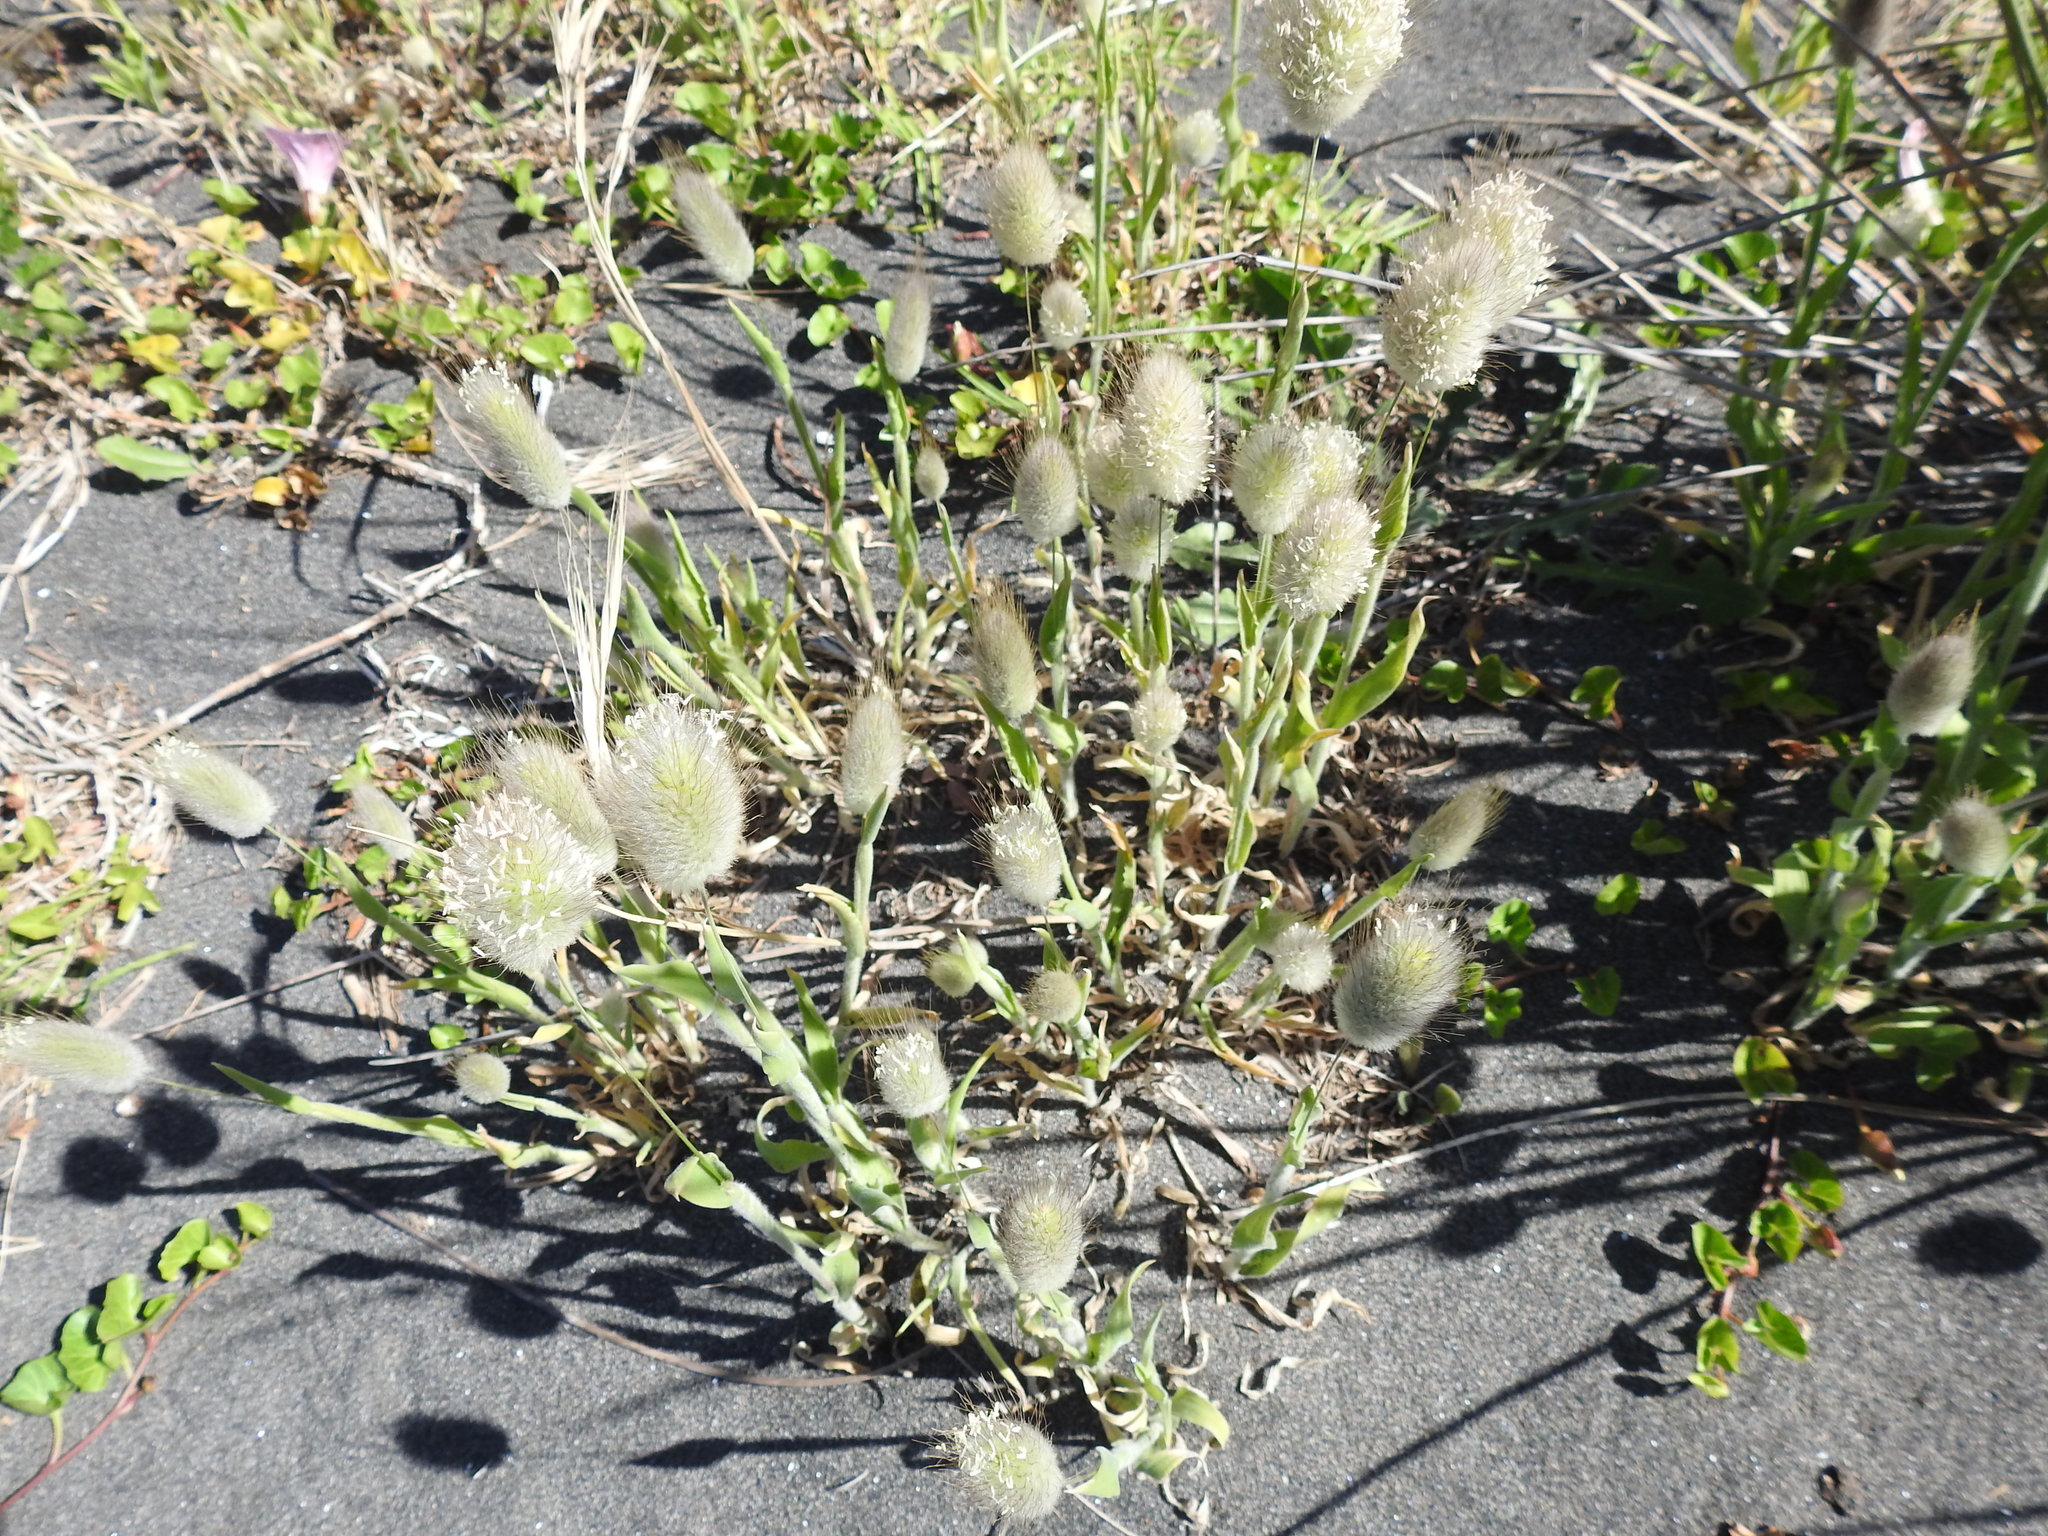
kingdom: Plantae
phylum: Tracheophyta
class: Liliopsida
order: Poales
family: Poaceae
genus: Lagurus
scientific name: Lagurus ovatus
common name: Hare's-tail
